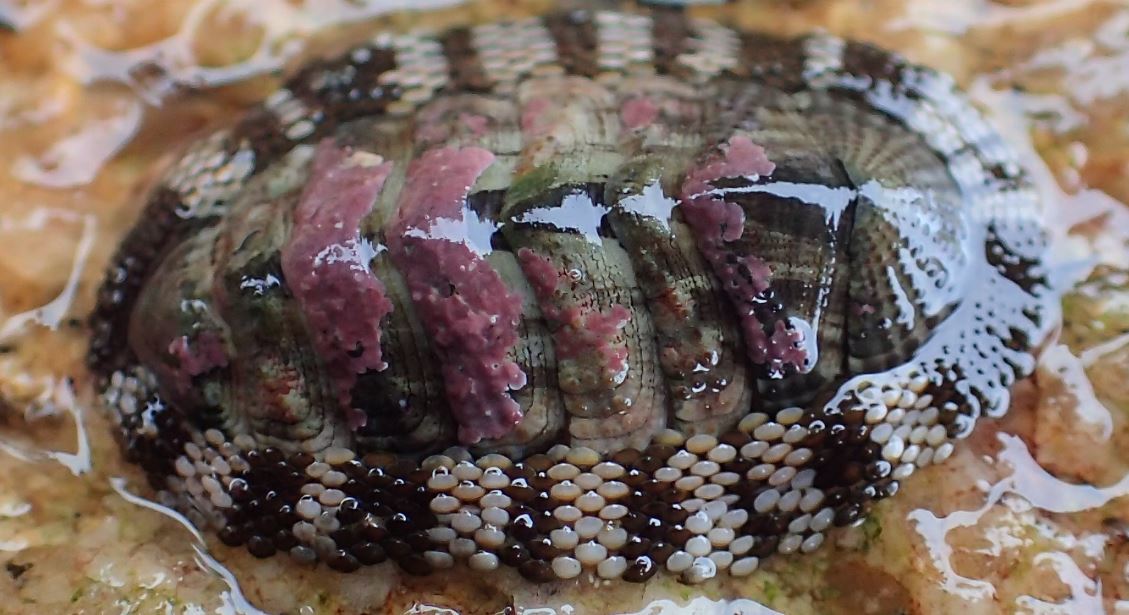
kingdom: Animalia
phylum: Mollusca
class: Polyplacophora
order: Chitonida
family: Chitonidae
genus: Sypharochiton
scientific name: Sypharochiton pelliserpentis
